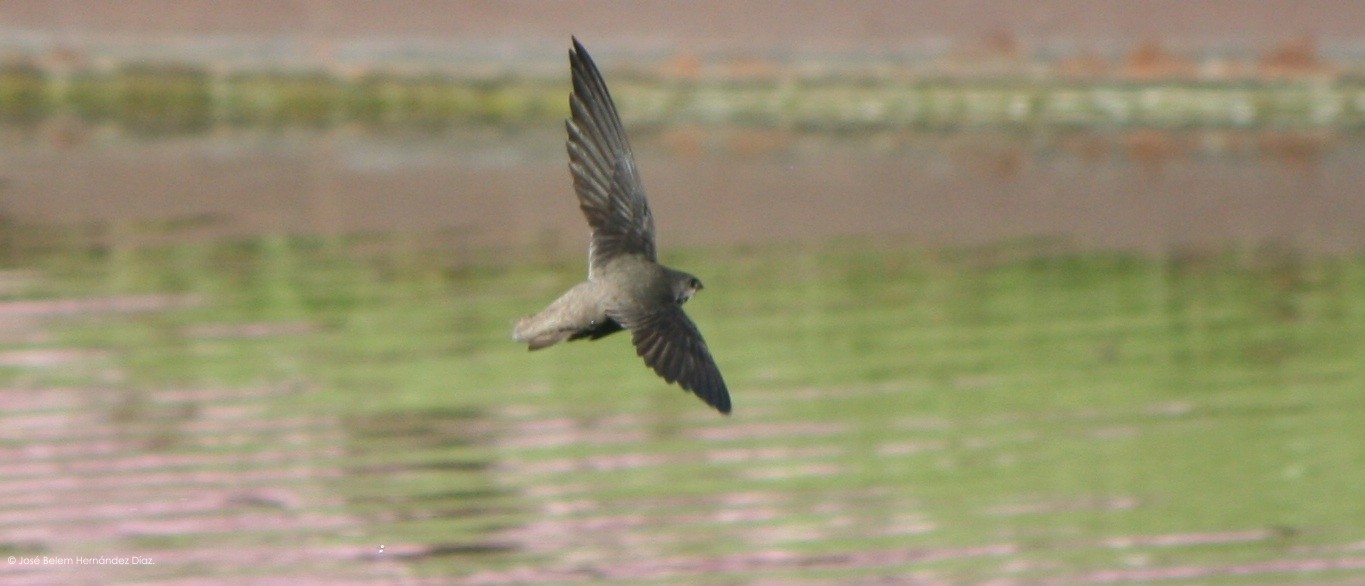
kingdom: Animalia
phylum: Chordata
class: Aves
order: Apodiformes
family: Apodidae
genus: Chaetura
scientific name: Chaetura pelagica
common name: Chimney swift
